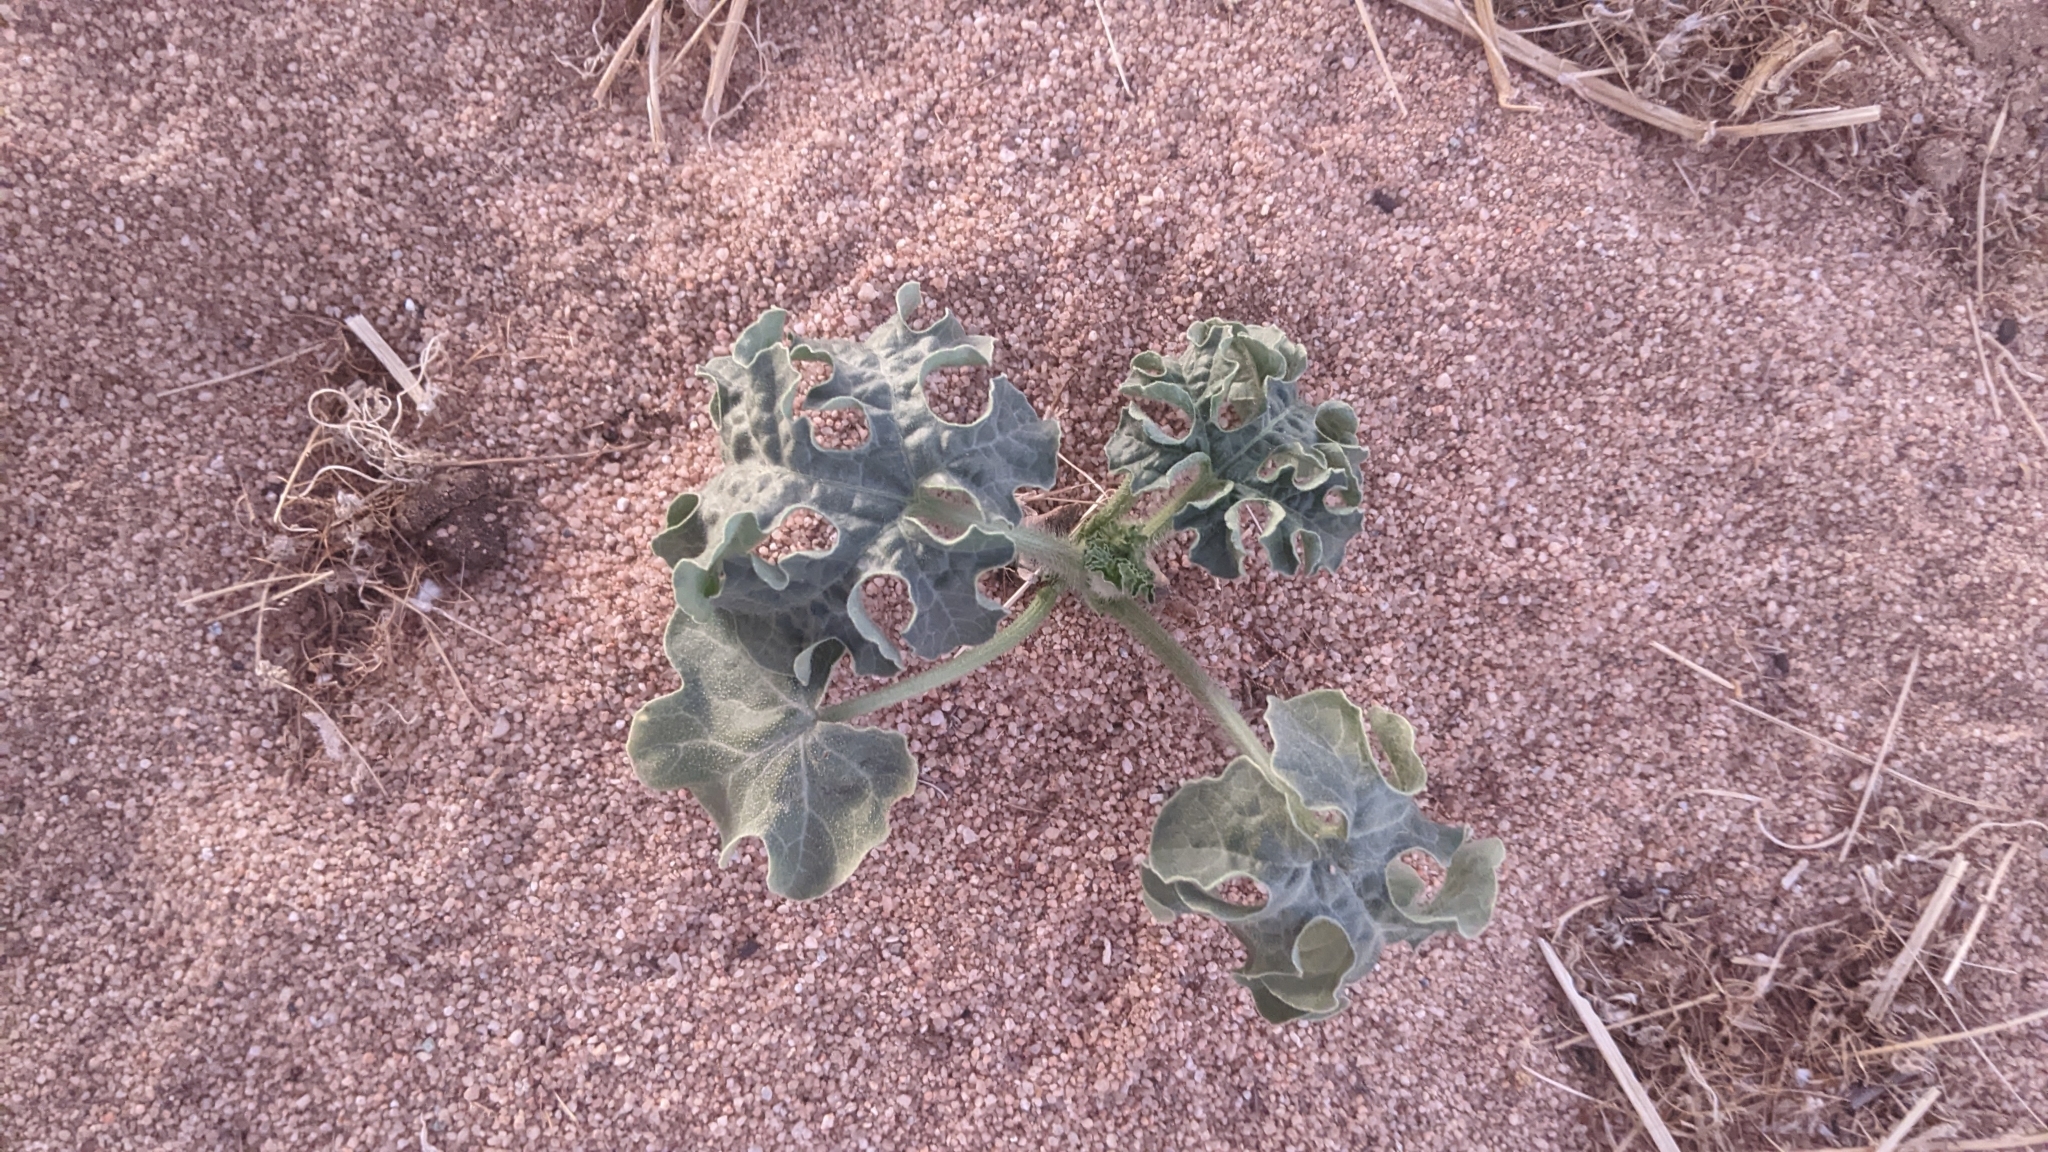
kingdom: Plantae
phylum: Tracheophyta
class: Magnoliopsida
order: Cucurbitales
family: Cucurbitaceae
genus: Citrullus
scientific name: Citrullus amarus
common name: Fodder-melon
